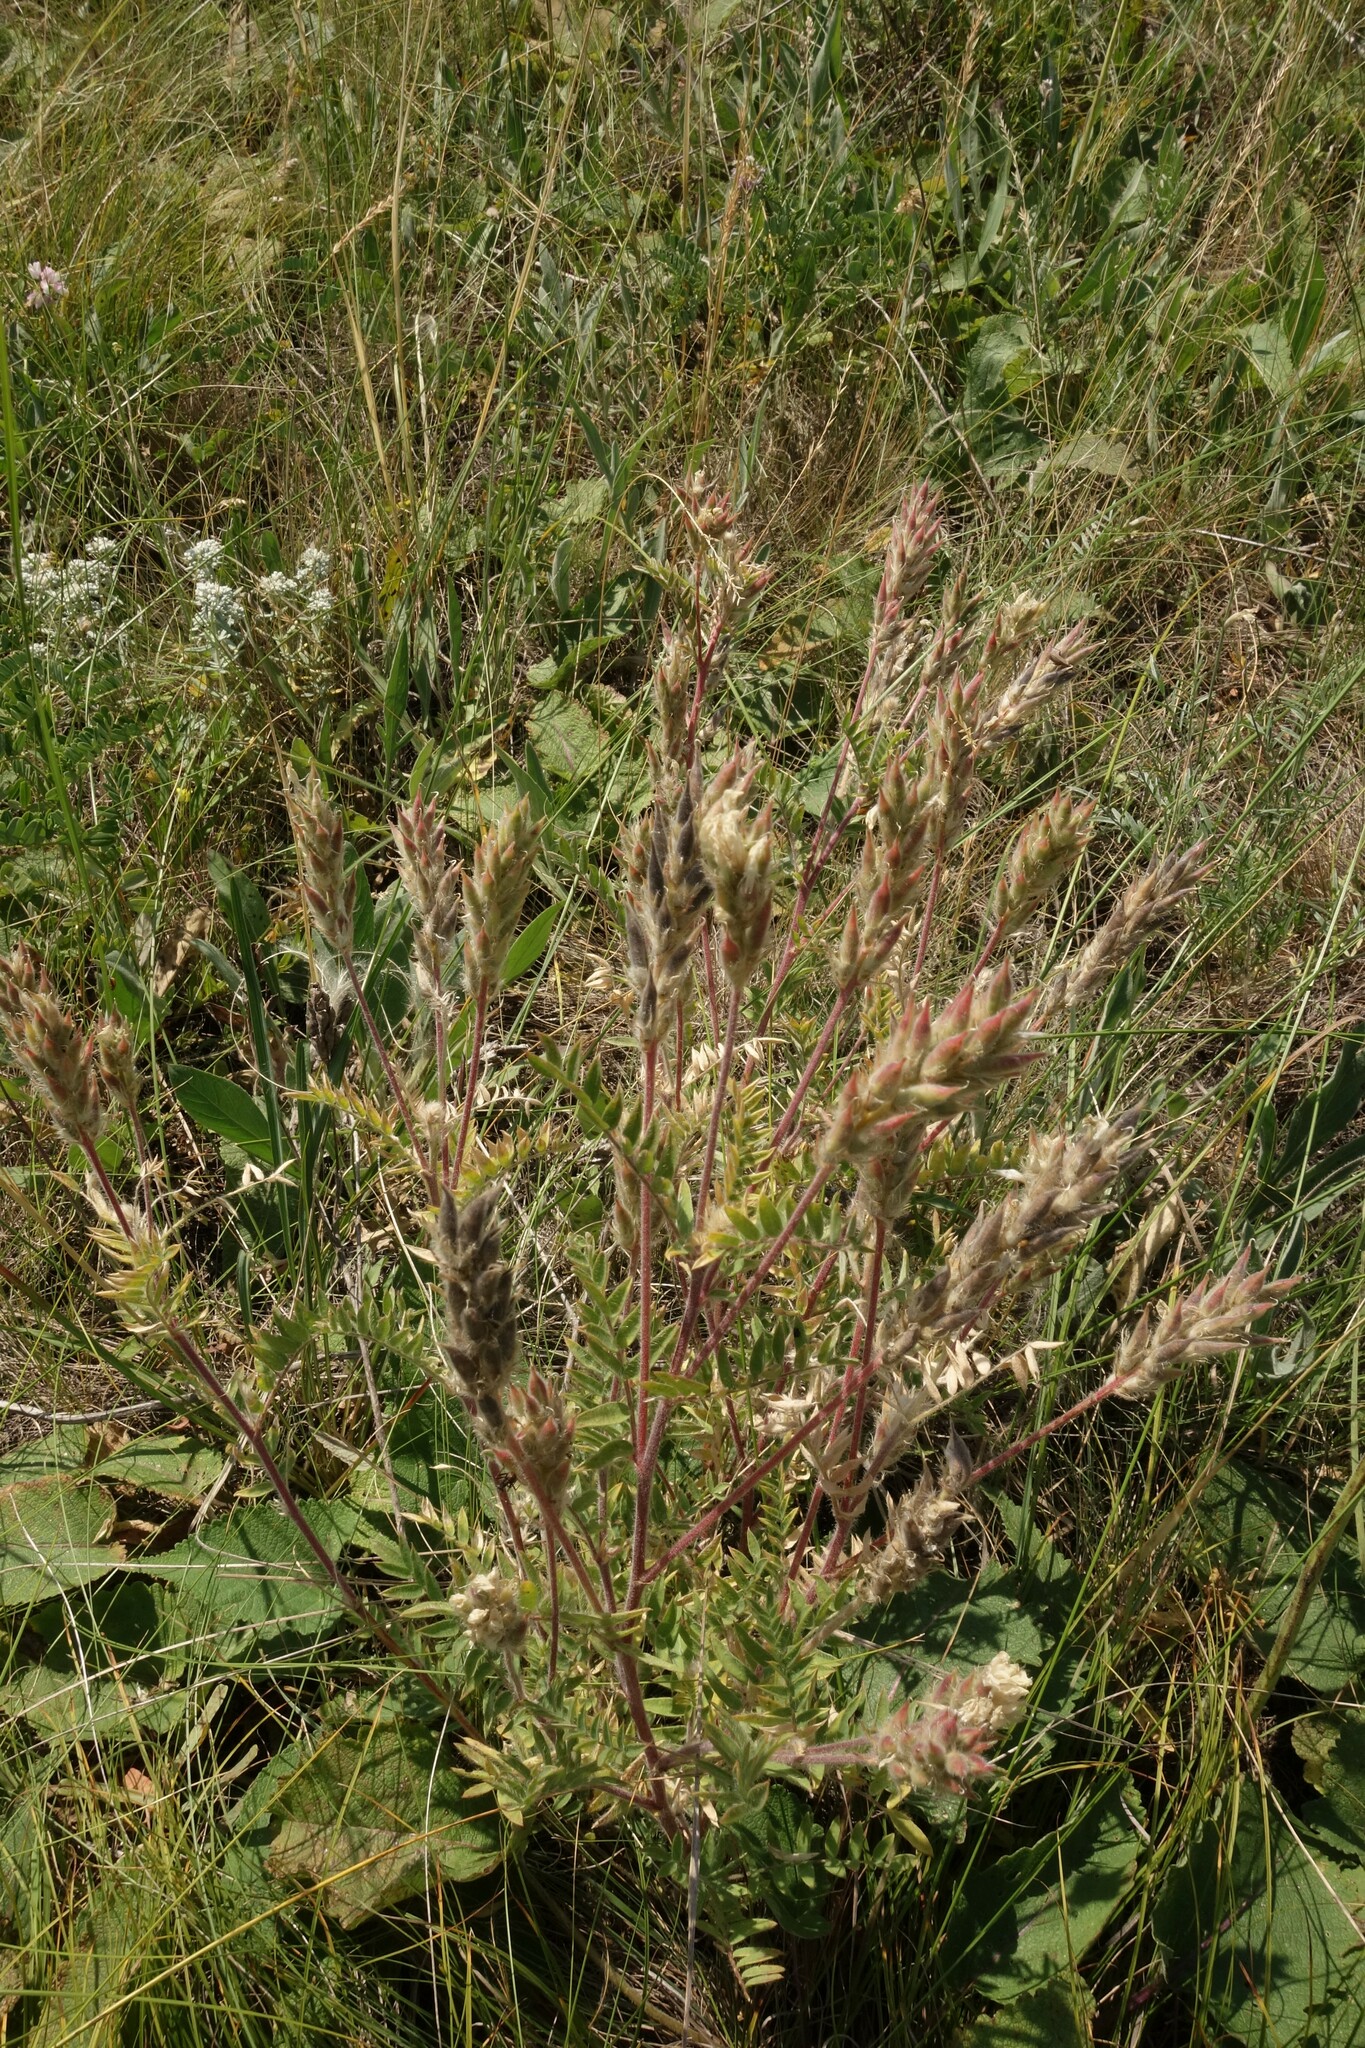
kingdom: Plantae
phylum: Tracheophyta
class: Magnoliopsida
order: Fabales
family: Fabaceae
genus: Oxytropis
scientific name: Oxytropis pilosa
